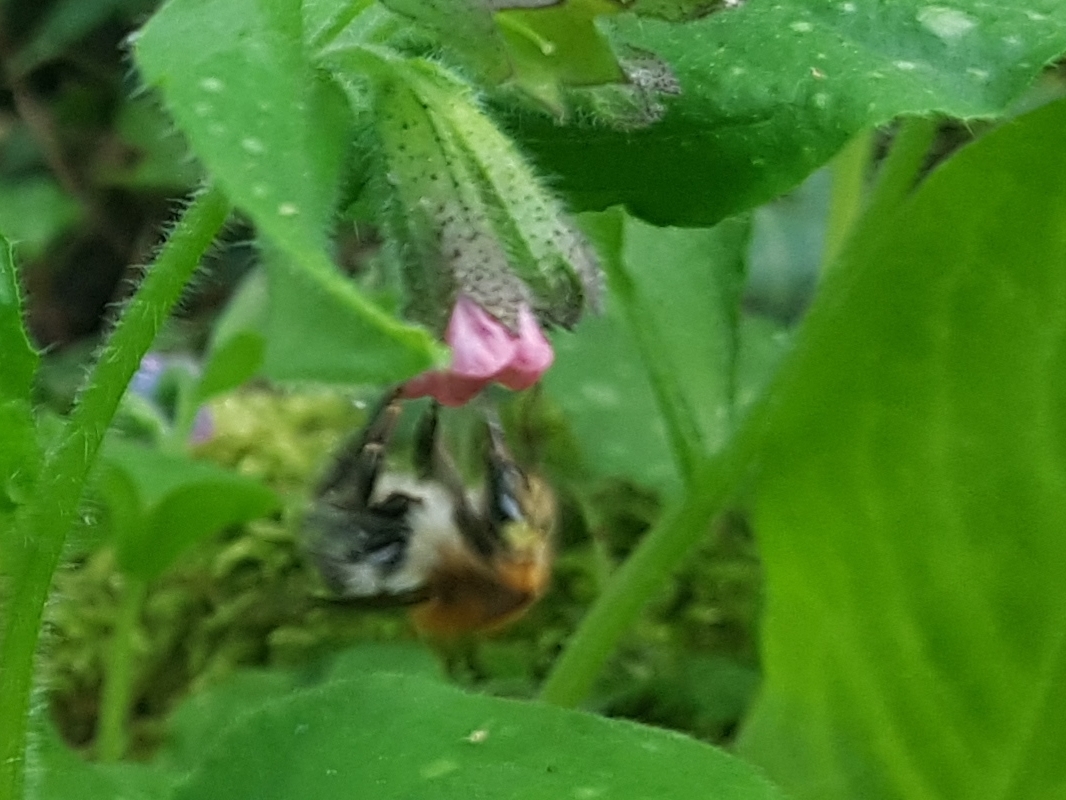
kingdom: Animalia
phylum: Arthropoda
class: Insecta
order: Hymenoptera
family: Apidae
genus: Bombus
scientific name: Bombus pascuorum
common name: Common carder bee
